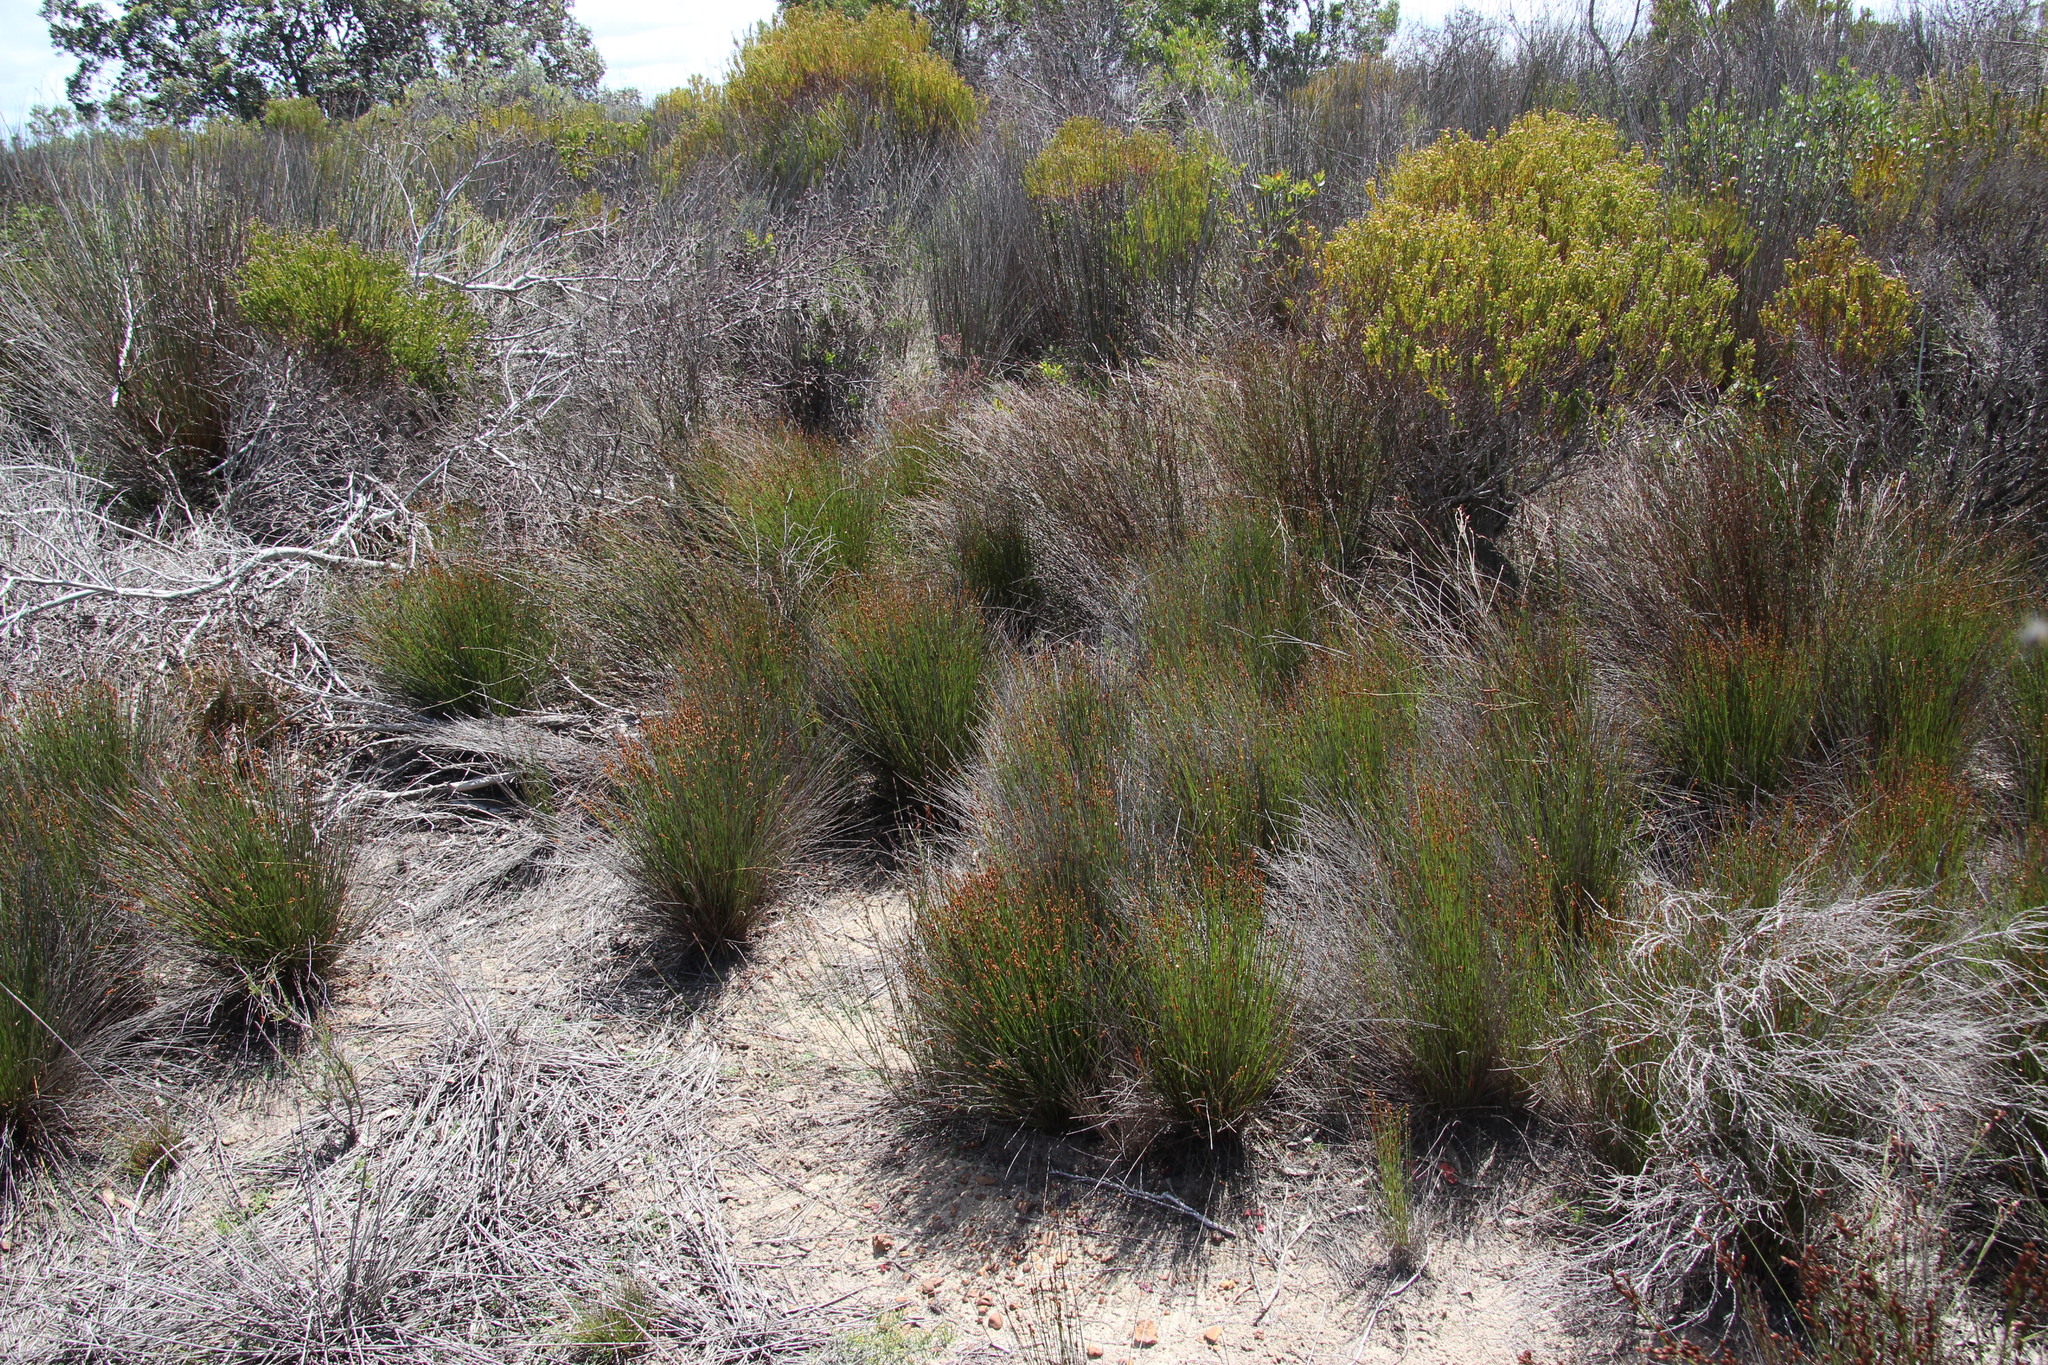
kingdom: Plantae
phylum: Tracheophyta
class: Liliopsida
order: Poales
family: Restionaceae
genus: Elegia
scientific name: Elegia nuda
